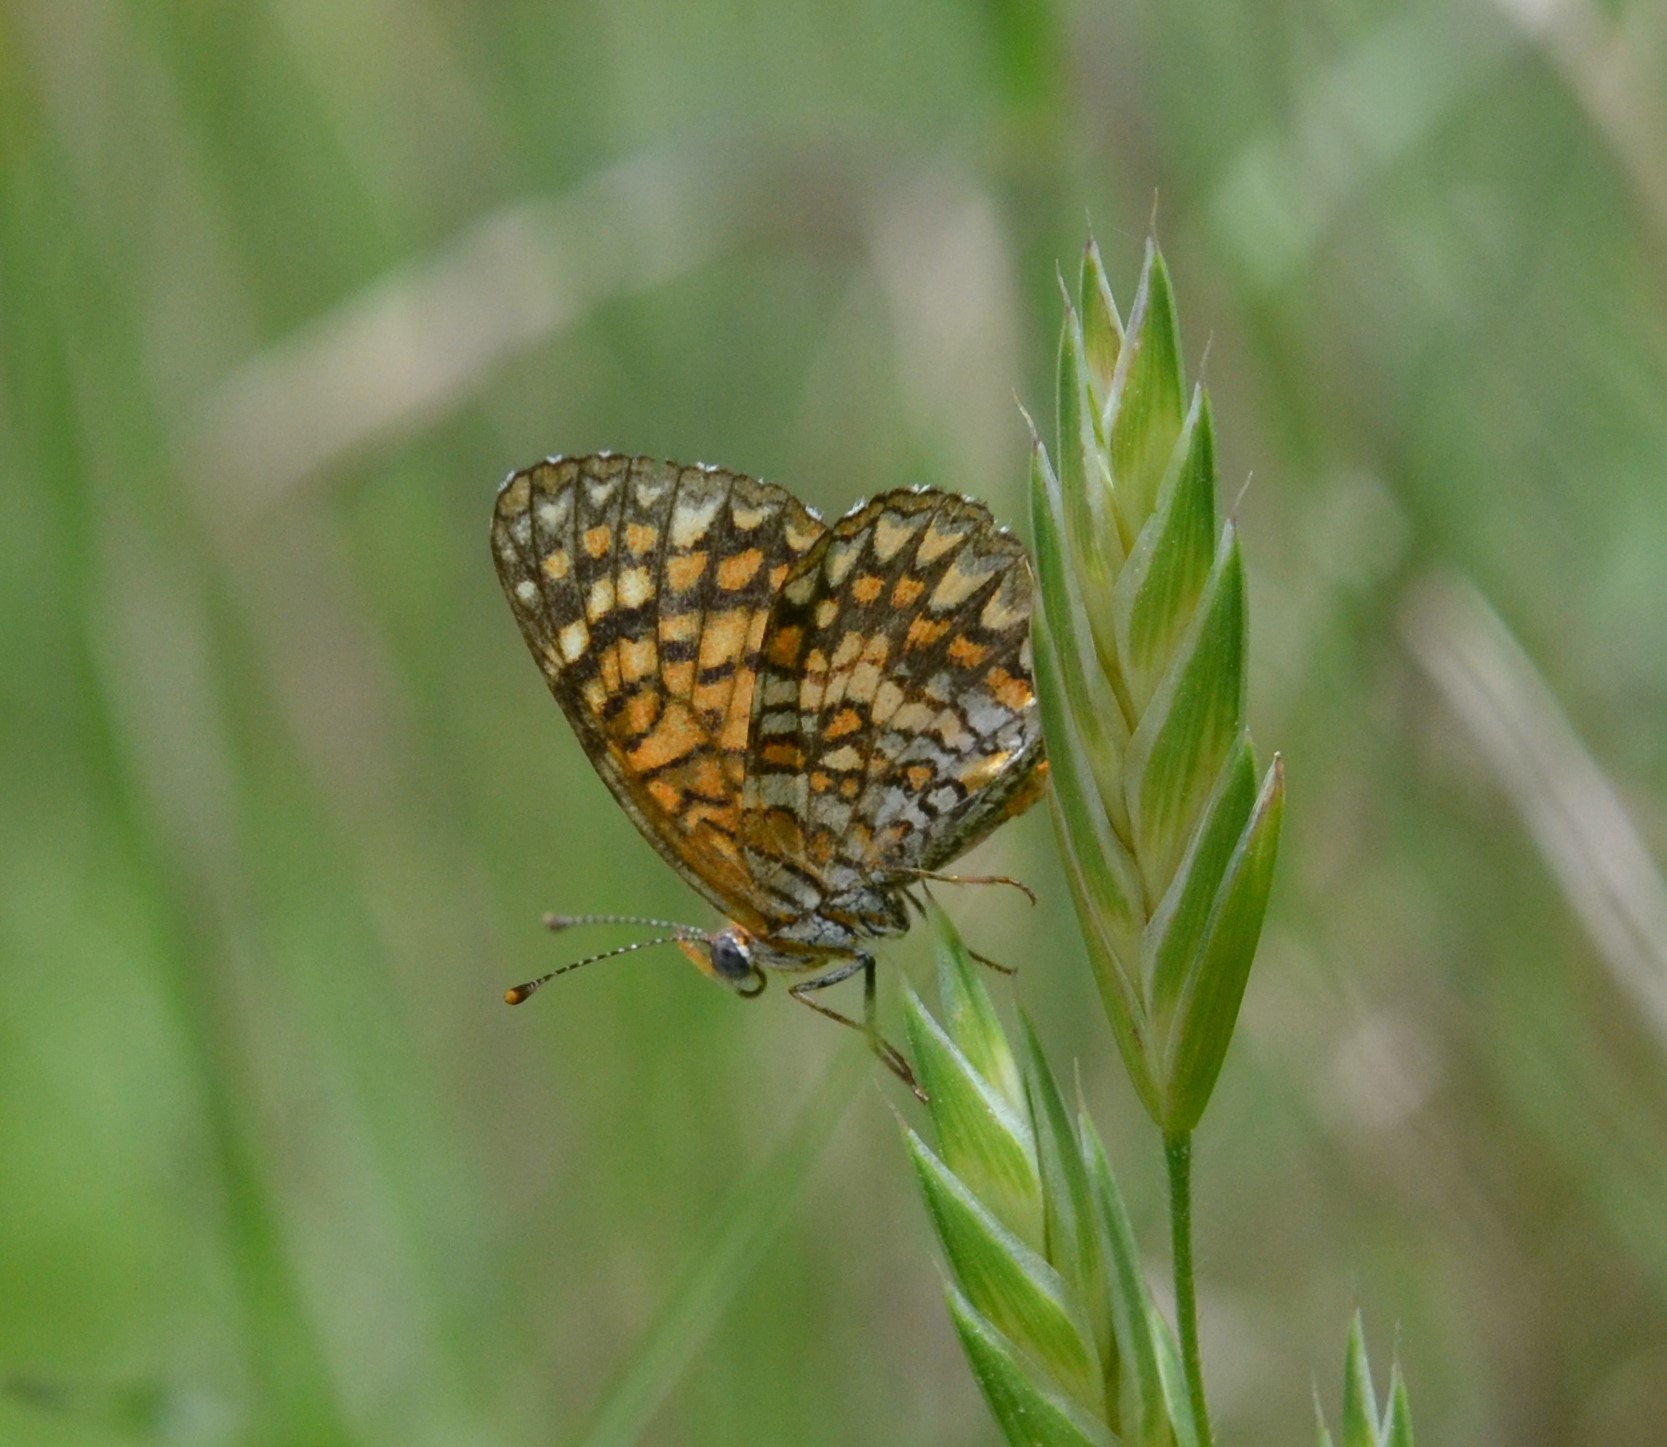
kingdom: Animalia
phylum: Arthropoda
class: Insecta
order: Lepidoptera
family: Nymphalidae
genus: Texola
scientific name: Texola elada
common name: Elada checkerspot
